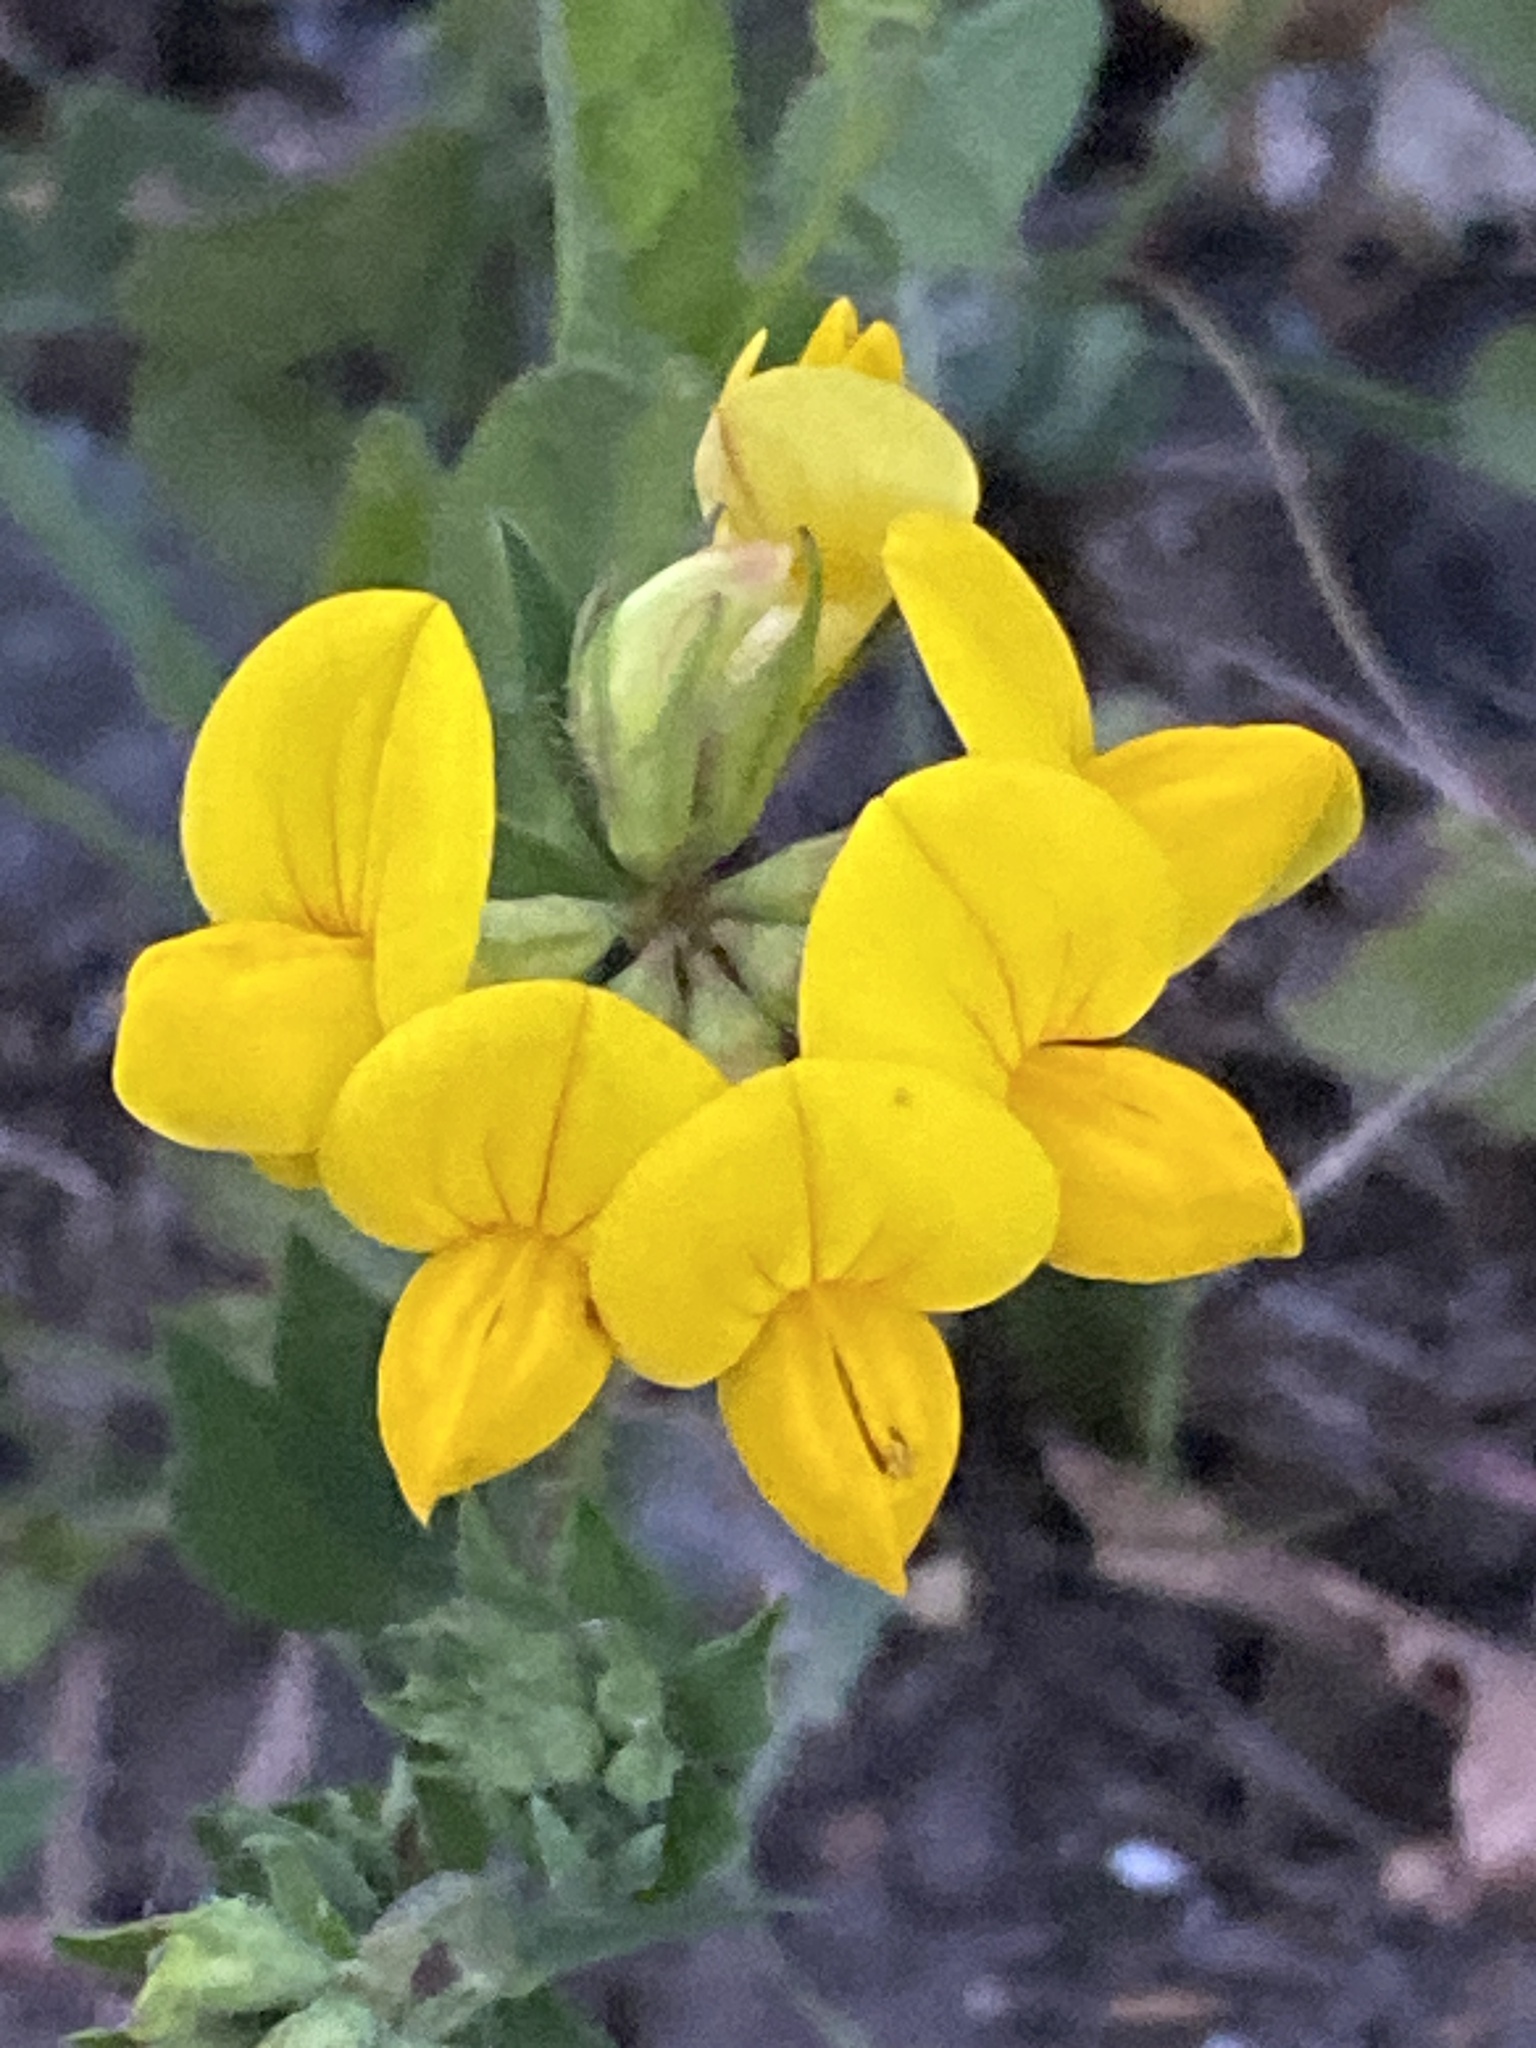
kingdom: Plantae
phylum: Tracheophyta
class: Magnoliopsida
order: Fabales
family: Fabaceae
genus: Lotus
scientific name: Lotus corniculatus
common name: Common bird's-foot-trefoil
